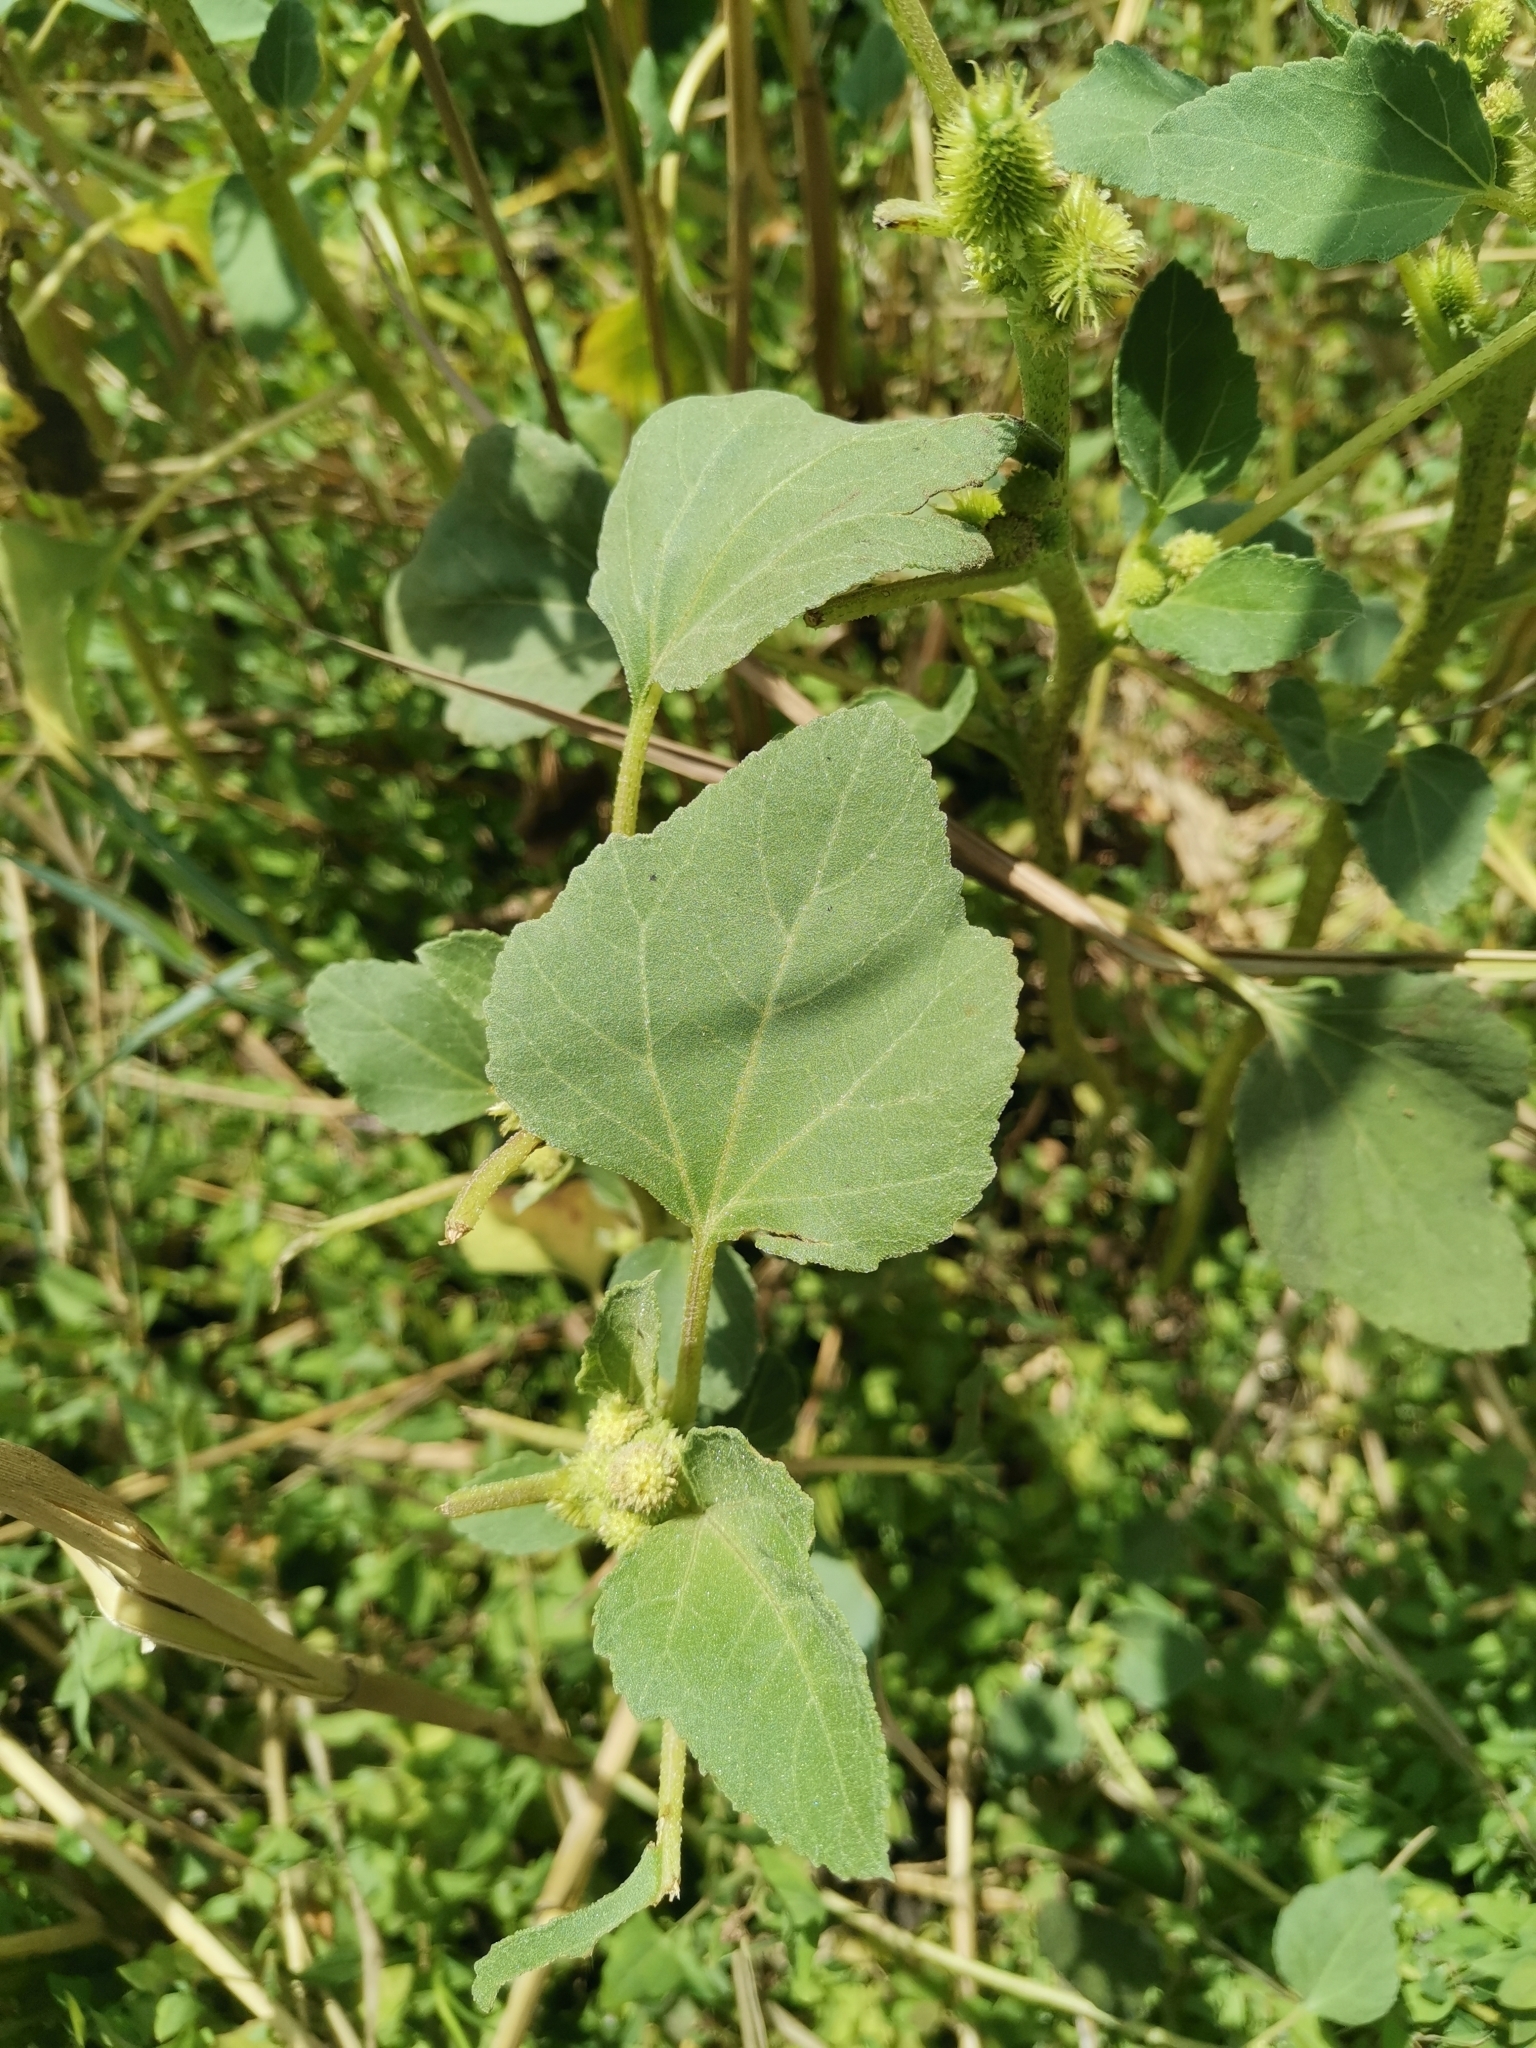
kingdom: Plantae
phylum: Tracheophyta
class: Magnoliopsida
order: Asterales
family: Asteraceae
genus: Xanthium
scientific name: Xanthium strumarium
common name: Rough cocklebur
